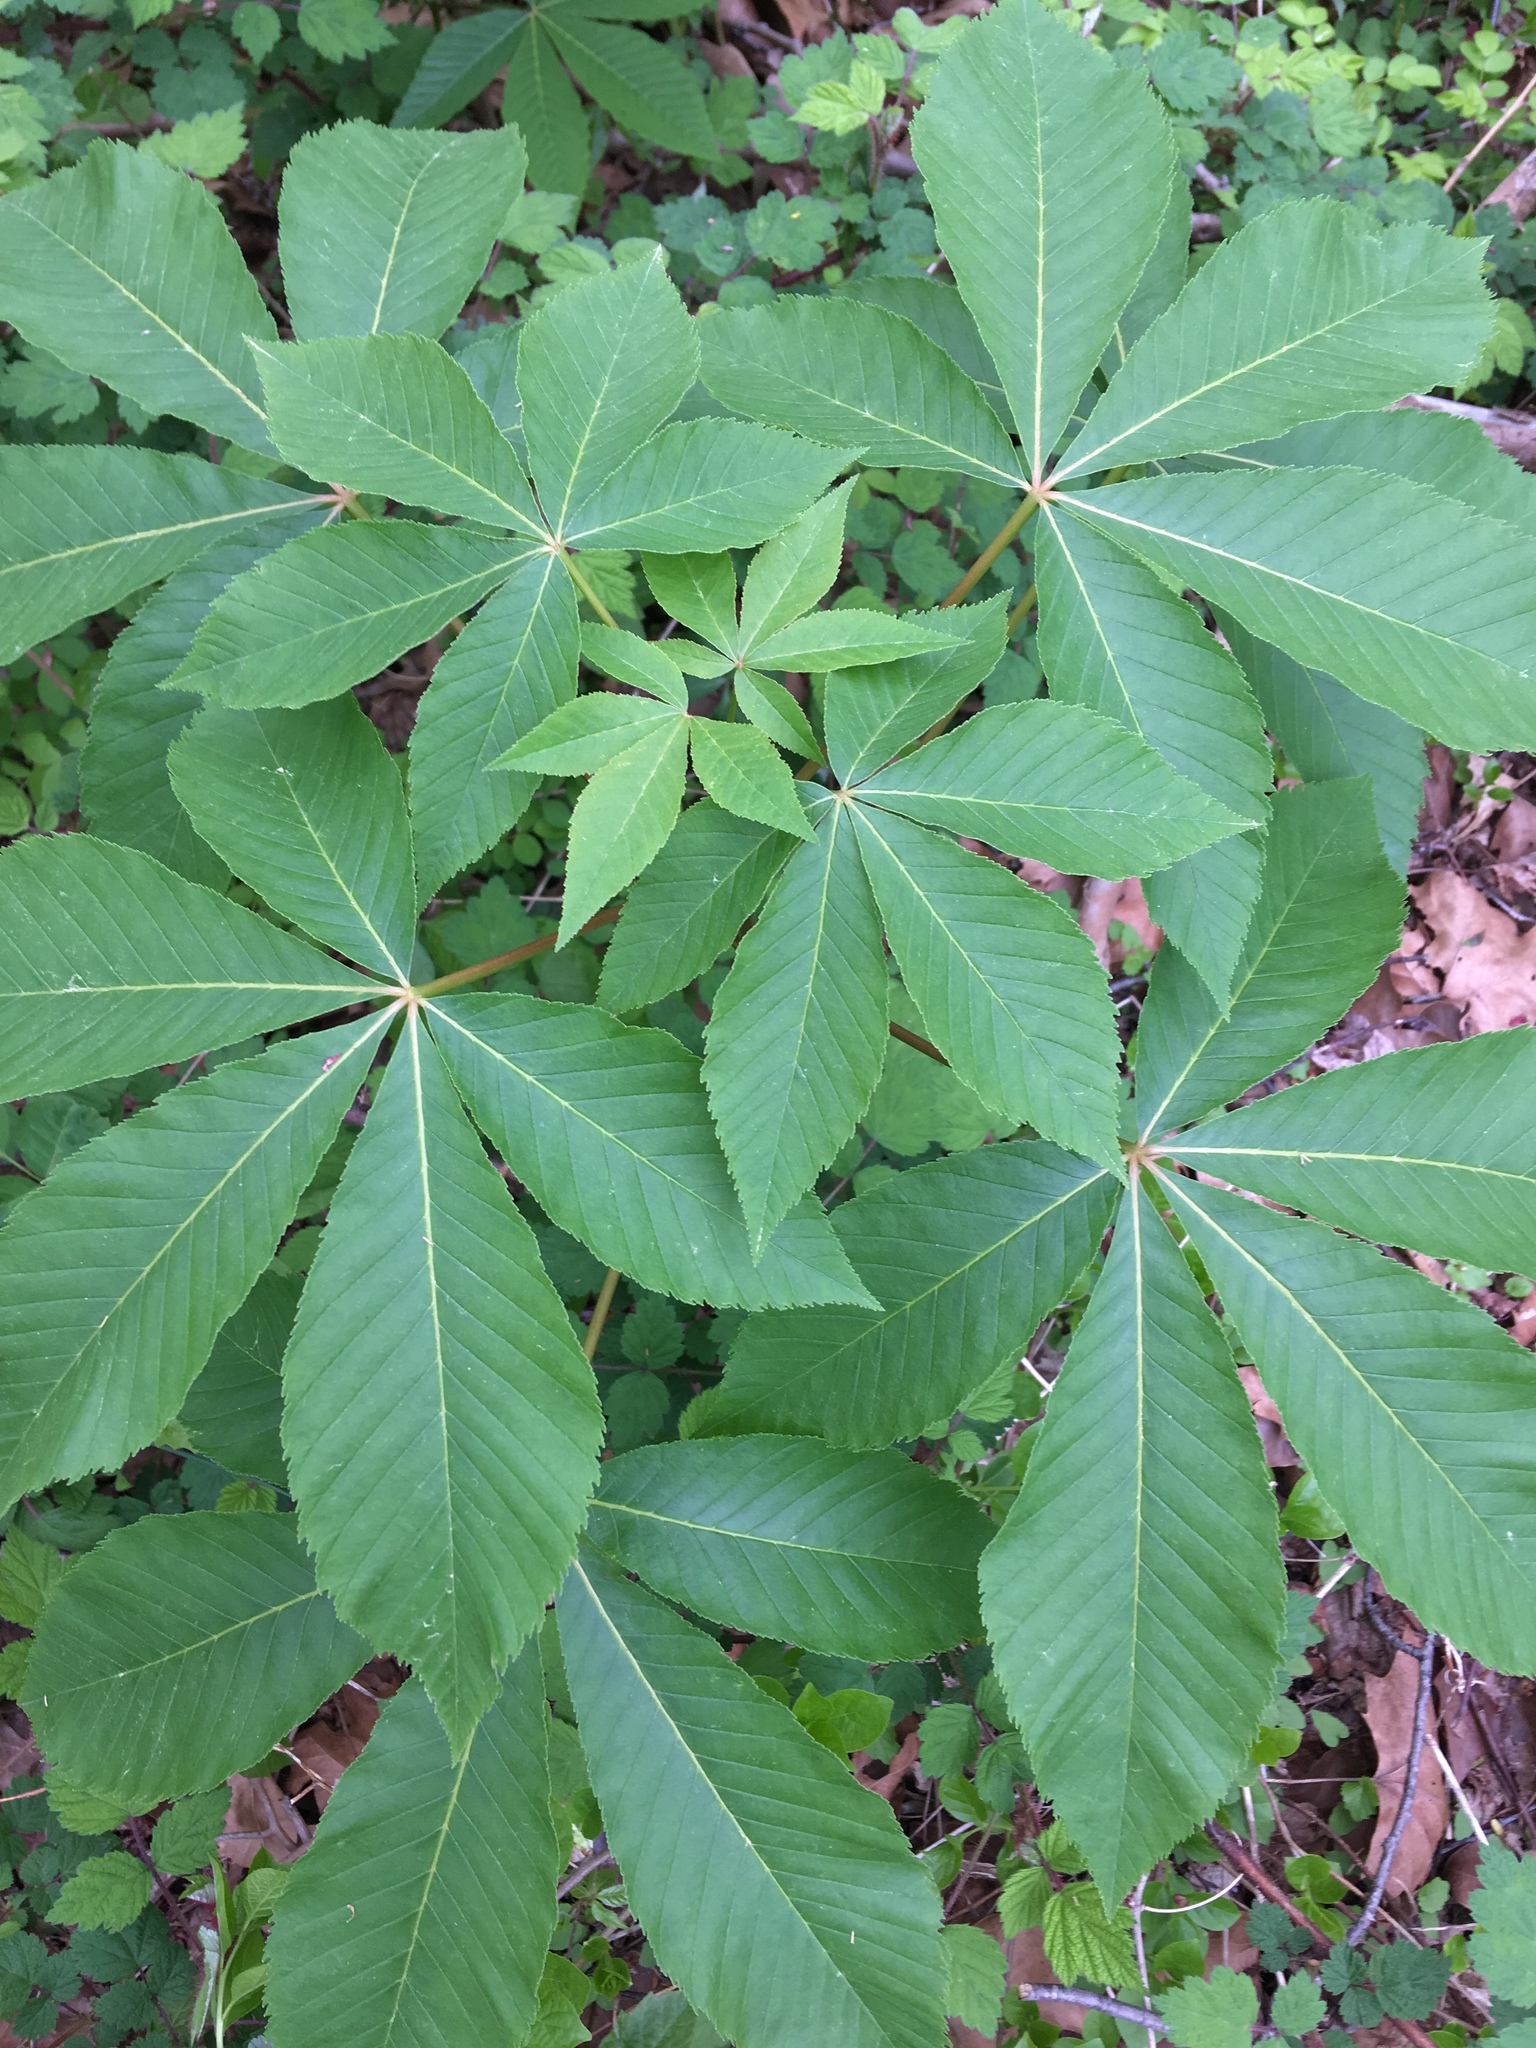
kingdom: Plantae
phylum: Tracheophyta
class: Magnoliopsida
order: Sapindales
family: Sapindaceae
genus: Aesculus
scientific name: Aesculus glabra
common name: Ohio buckeye
